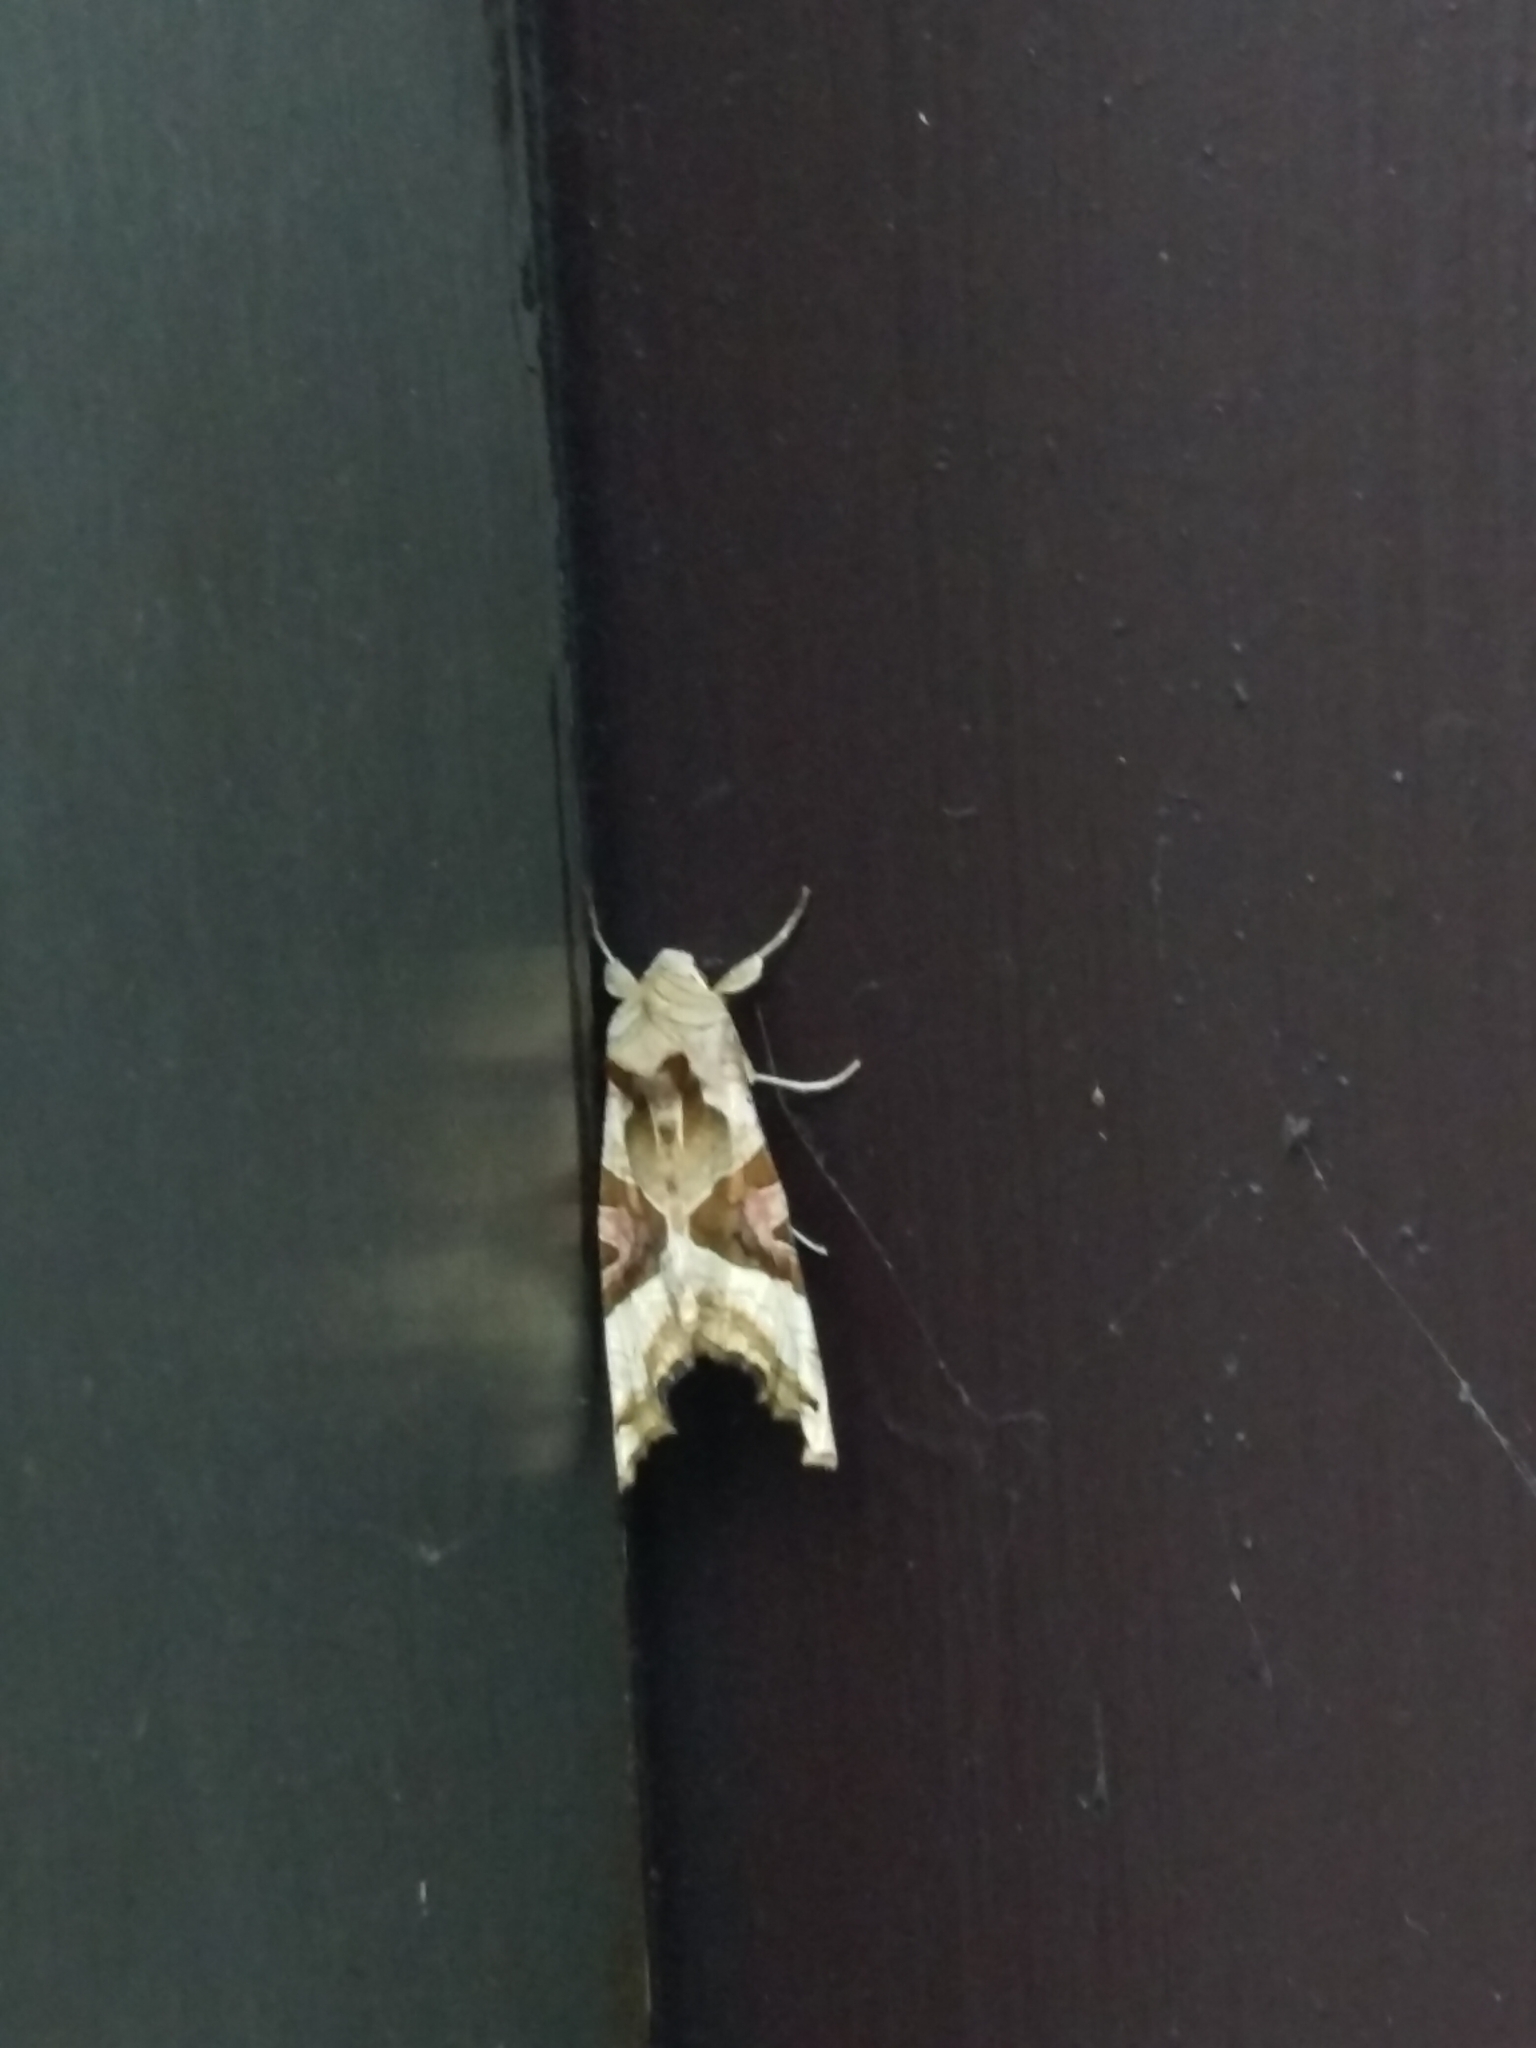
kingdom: Animalia
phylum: Arthropoda
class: Insecta
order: Lepidoptera
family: Noctuidae
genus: Phlogophora
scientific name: Phlogophora meticulosa
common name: Angle shades
